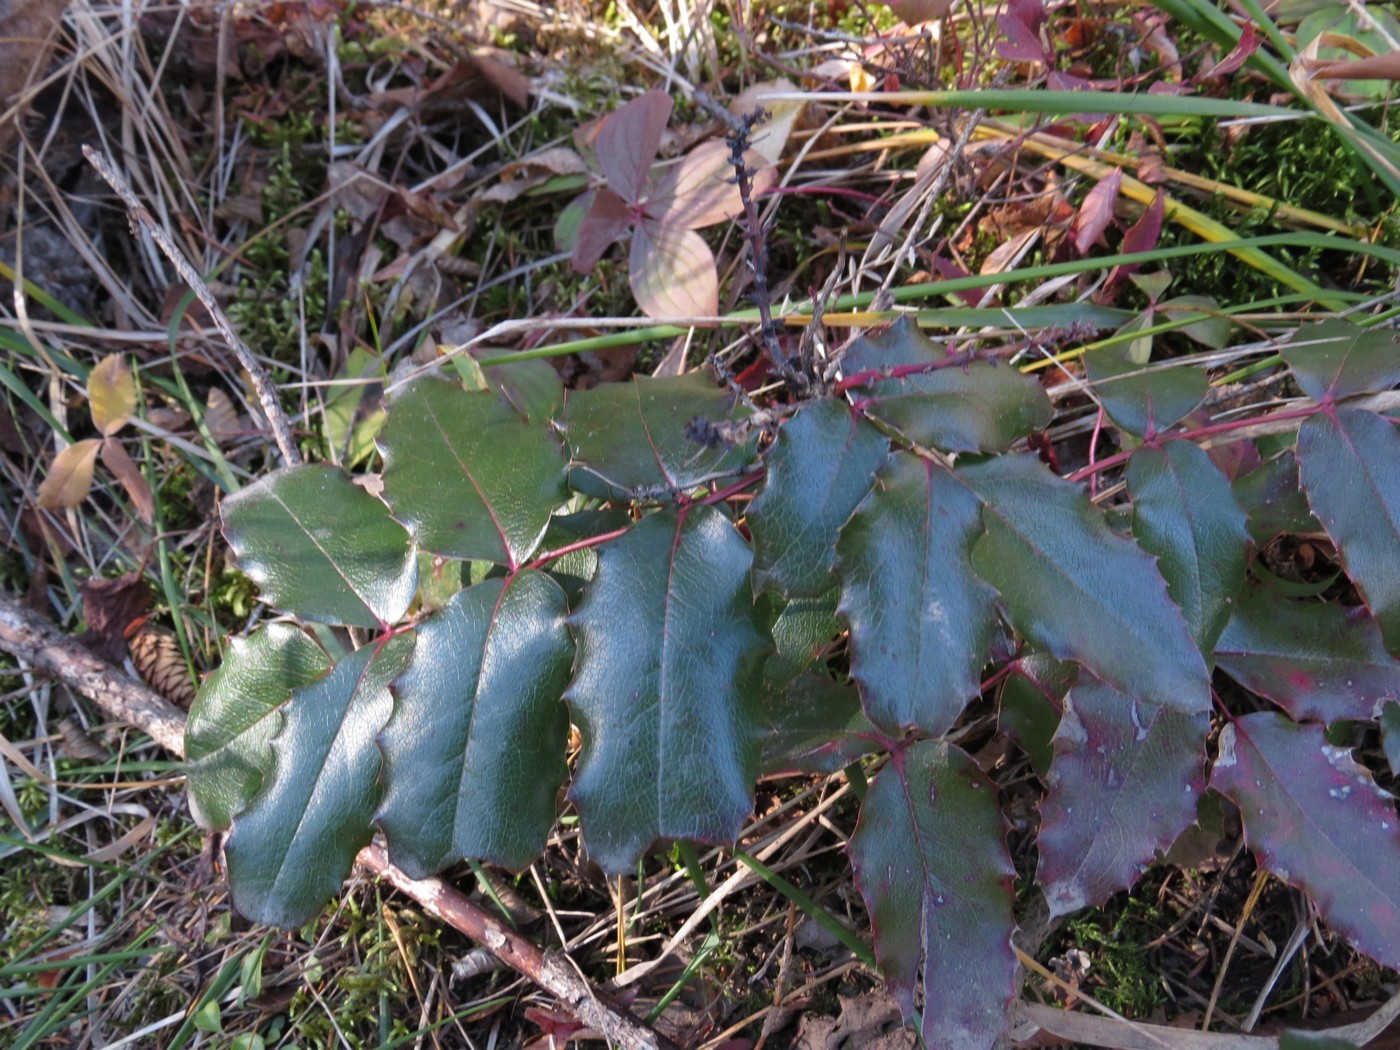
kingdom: Plantae
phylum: Tracheophyta
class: Magnoliopsida
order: Ranunculales
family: Berberidaceae
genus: Mahonia
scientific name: Mahonia aquifolium
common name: Oregon-grape
